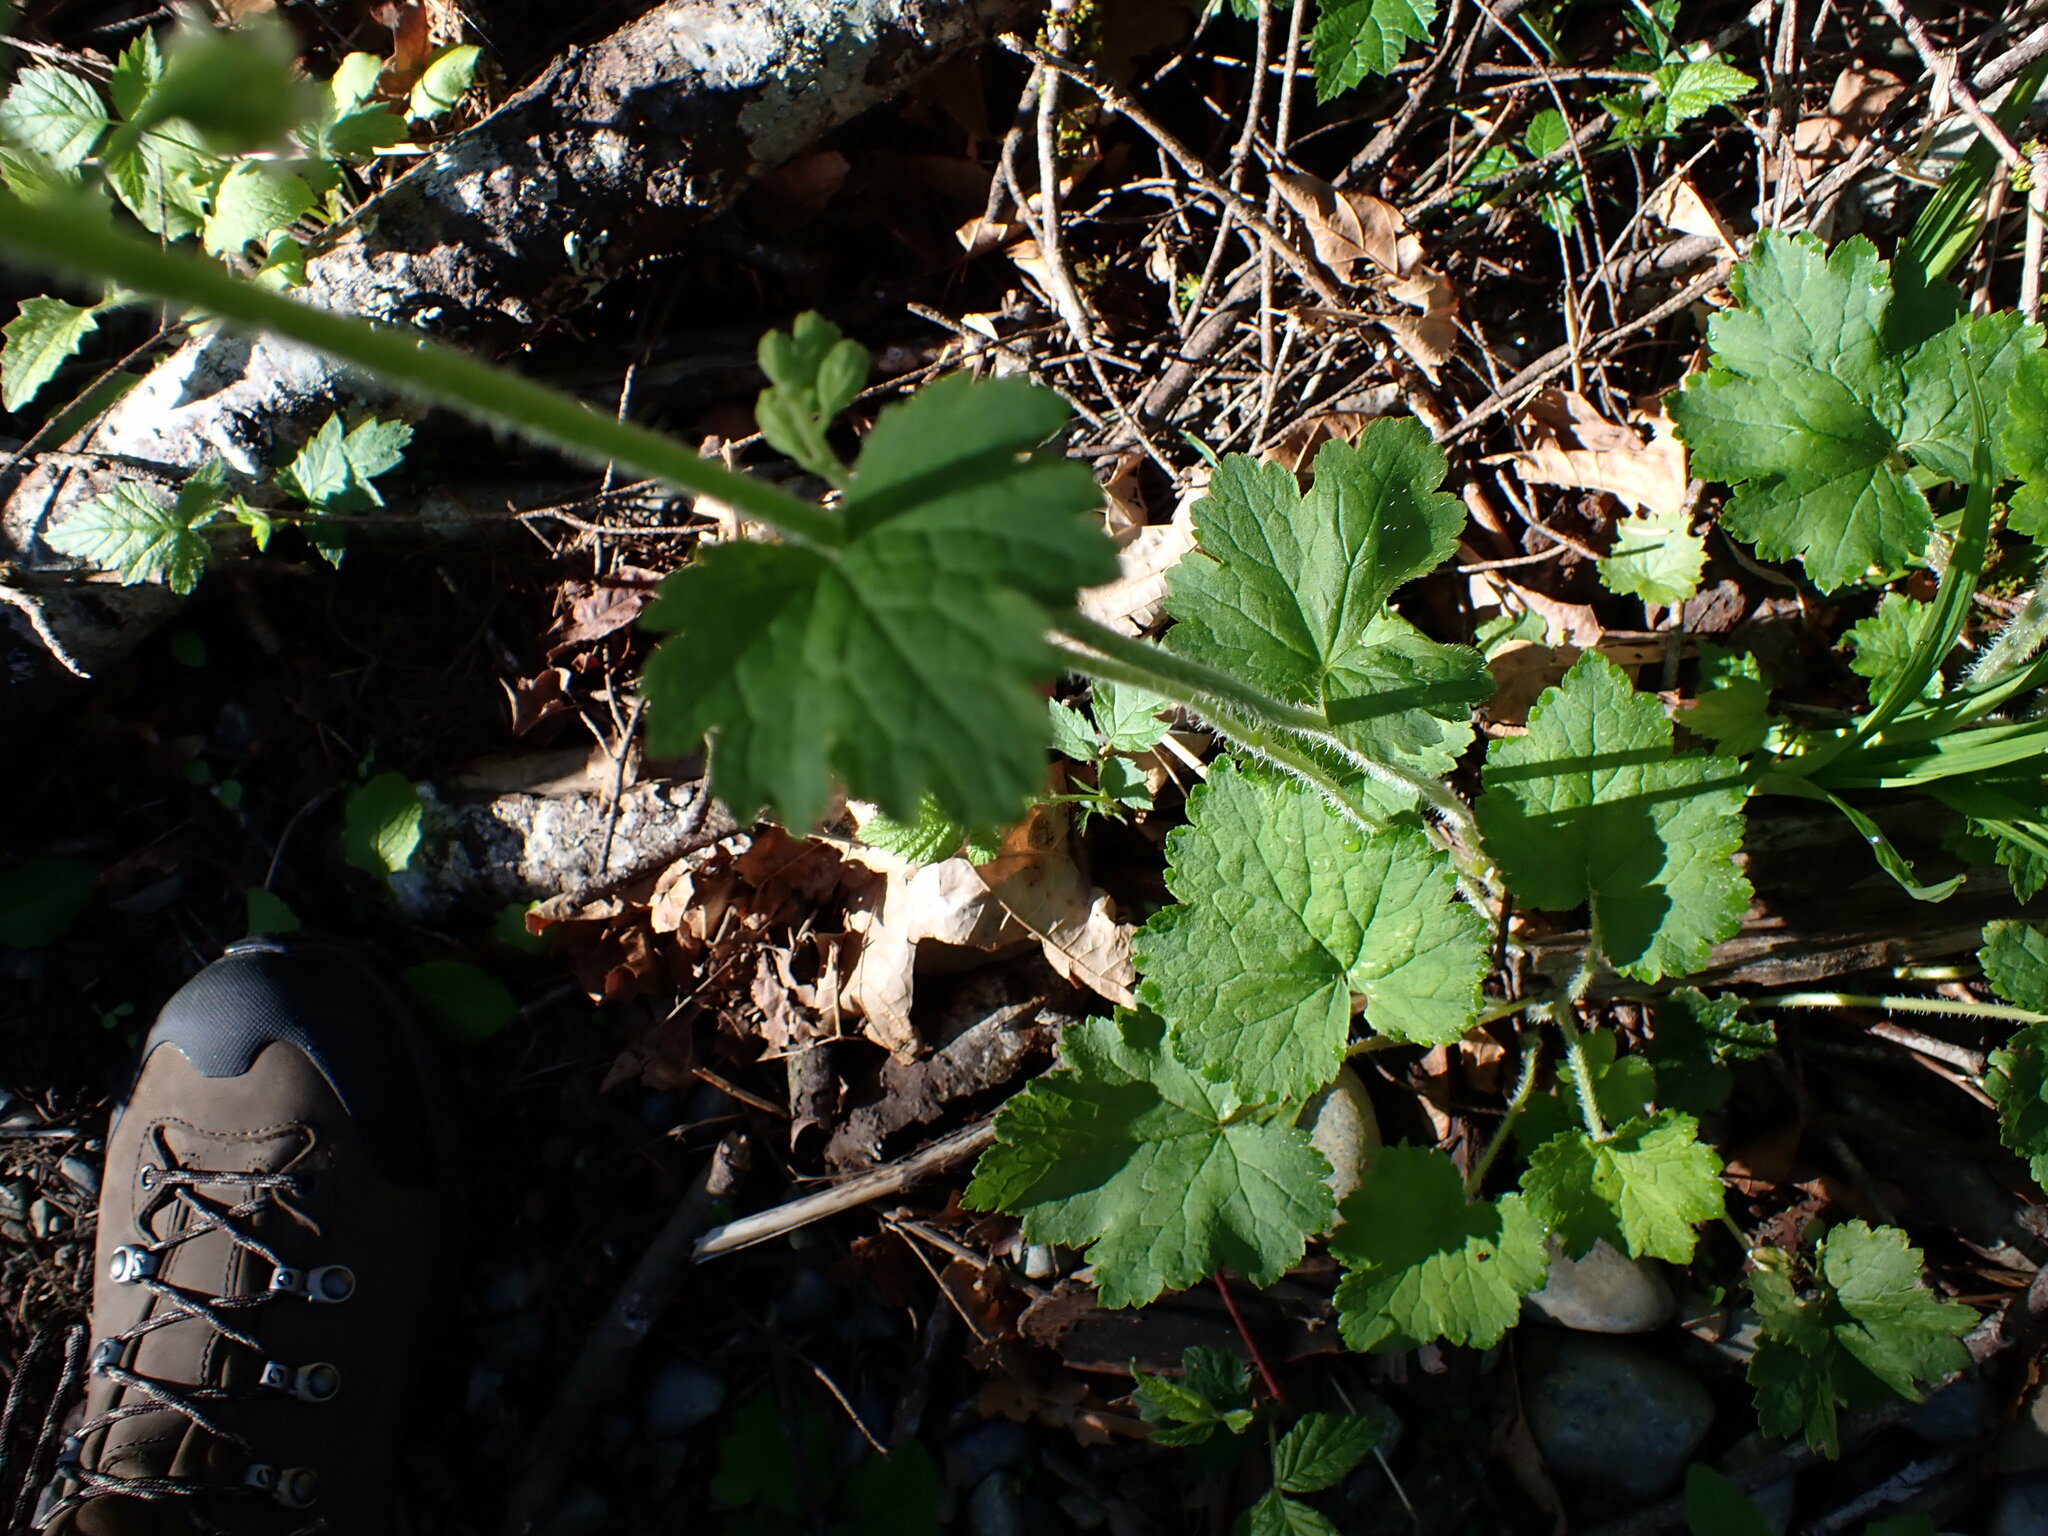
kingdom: Plantae
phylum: Tracheophyta
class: Magnoliopsida
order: Saxifragales
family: Saxifragaceae
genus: Tellima
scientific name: Tellima grandiflora
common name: Fringecups
